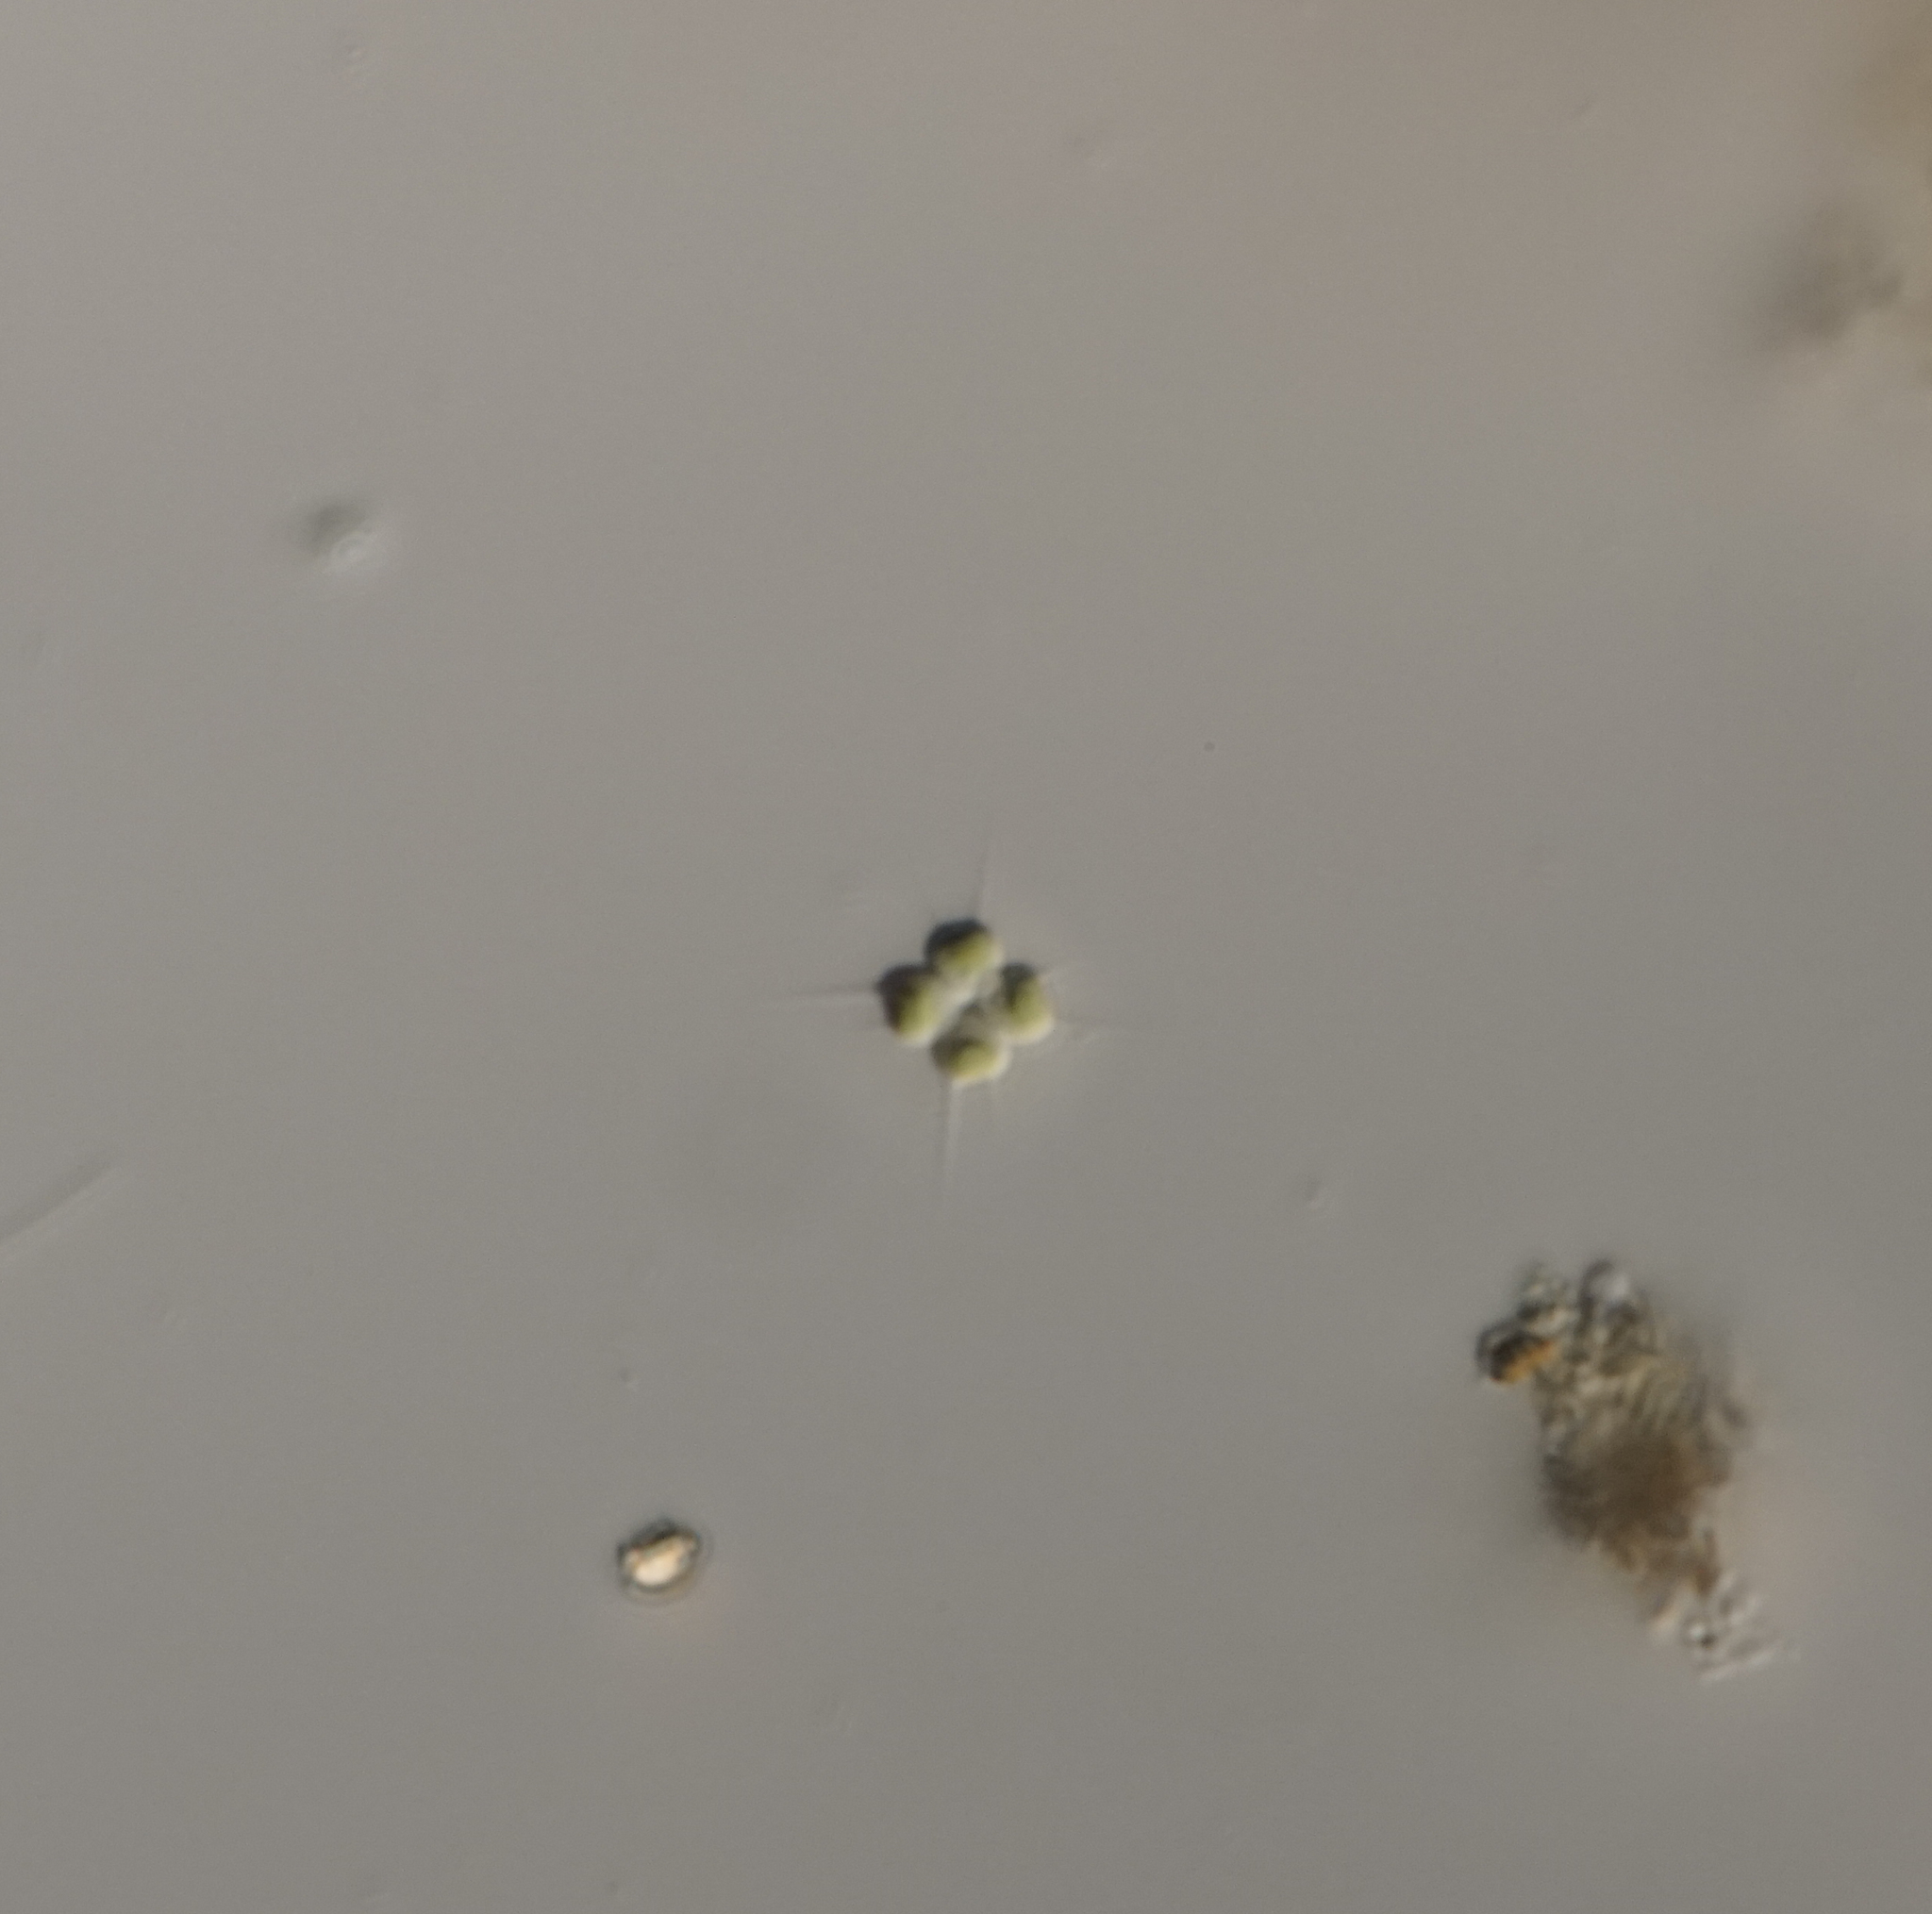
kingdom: Plantae
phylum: Chlorophyta
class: Chlorophyceae
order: Sphaeropleales
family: Scenedesmaceae
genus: Tetrastrum
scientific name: Tetrastrum heteracanthum
